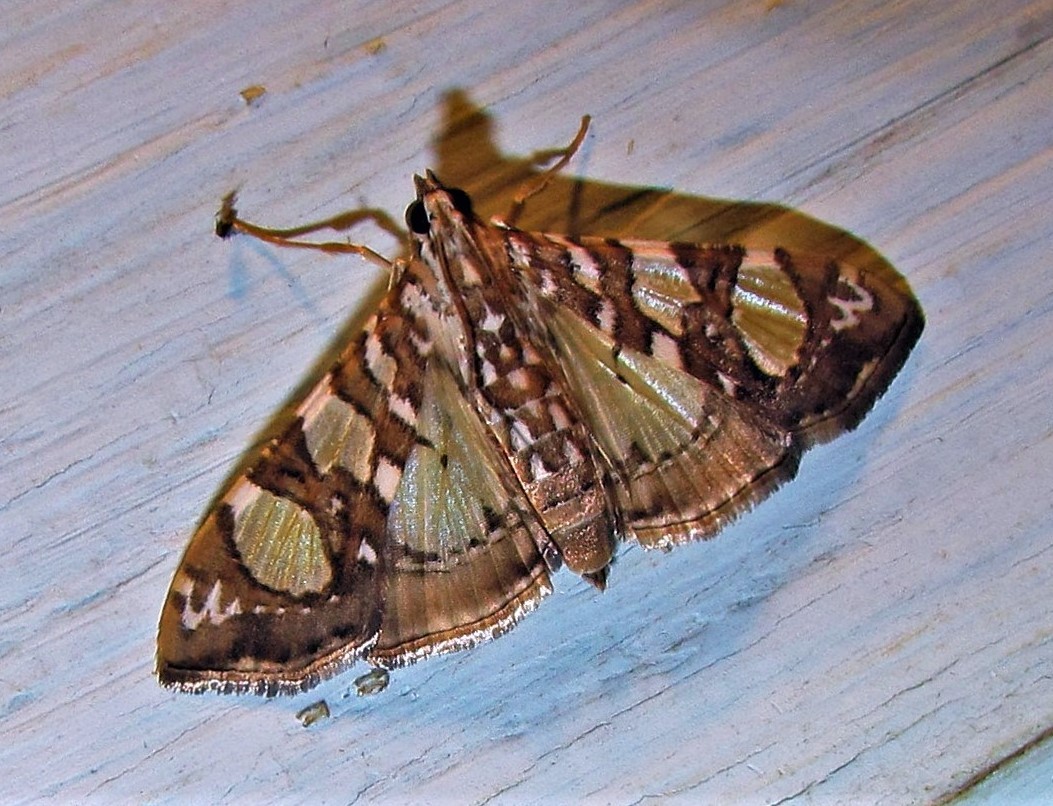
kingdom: Animalia
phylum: Arthropoda
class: Insecta
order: Lepidoptera
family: Crambidae
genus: Glyphodes
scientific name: Glyphodes sibillalis
